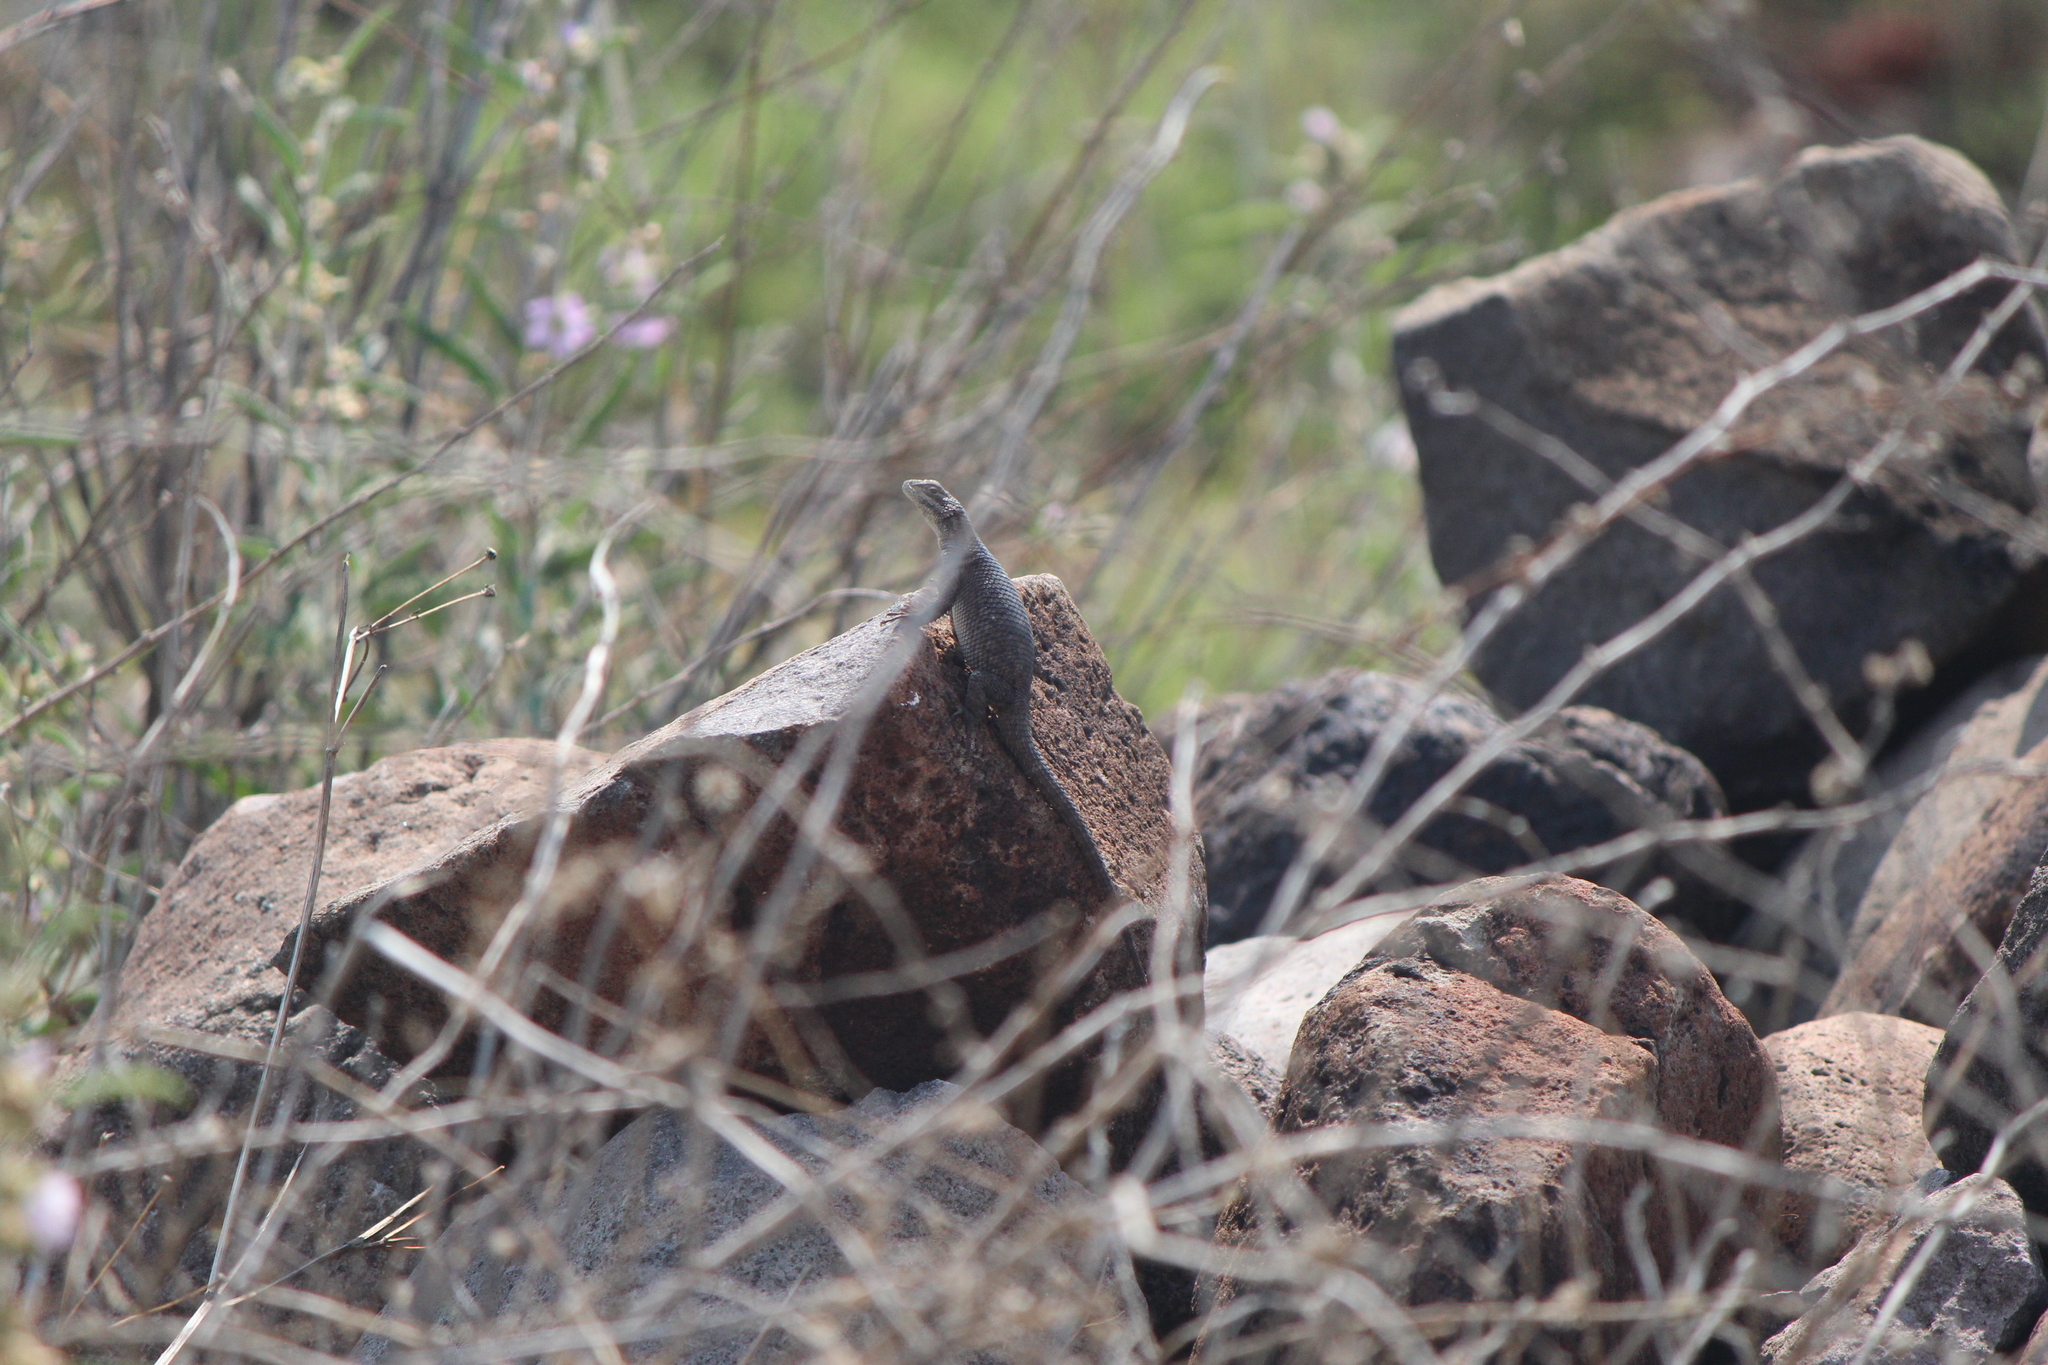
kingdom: Animalia
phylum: Chordata
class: Squamata
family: Phrynosomatidae
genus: Sceloporus
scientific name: Sceloporus minor
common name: Minor lizard
